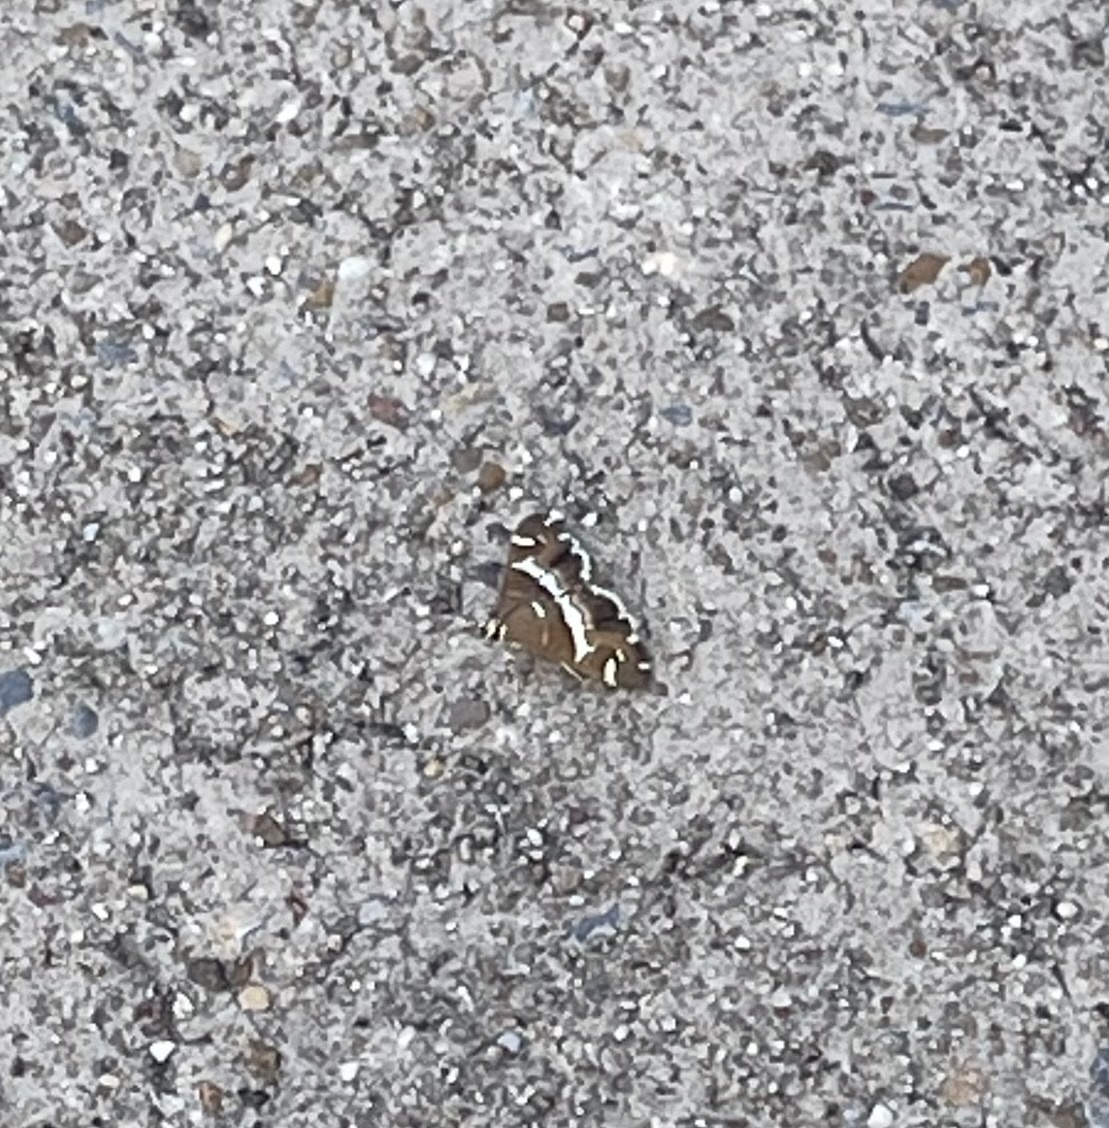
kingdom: Animalia
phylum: Arthropoda
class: Insecta
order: Lepidoptera
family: Crambidae
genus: Spoladea
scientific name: Spoladea recurvalis
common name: Beet webworm moth
